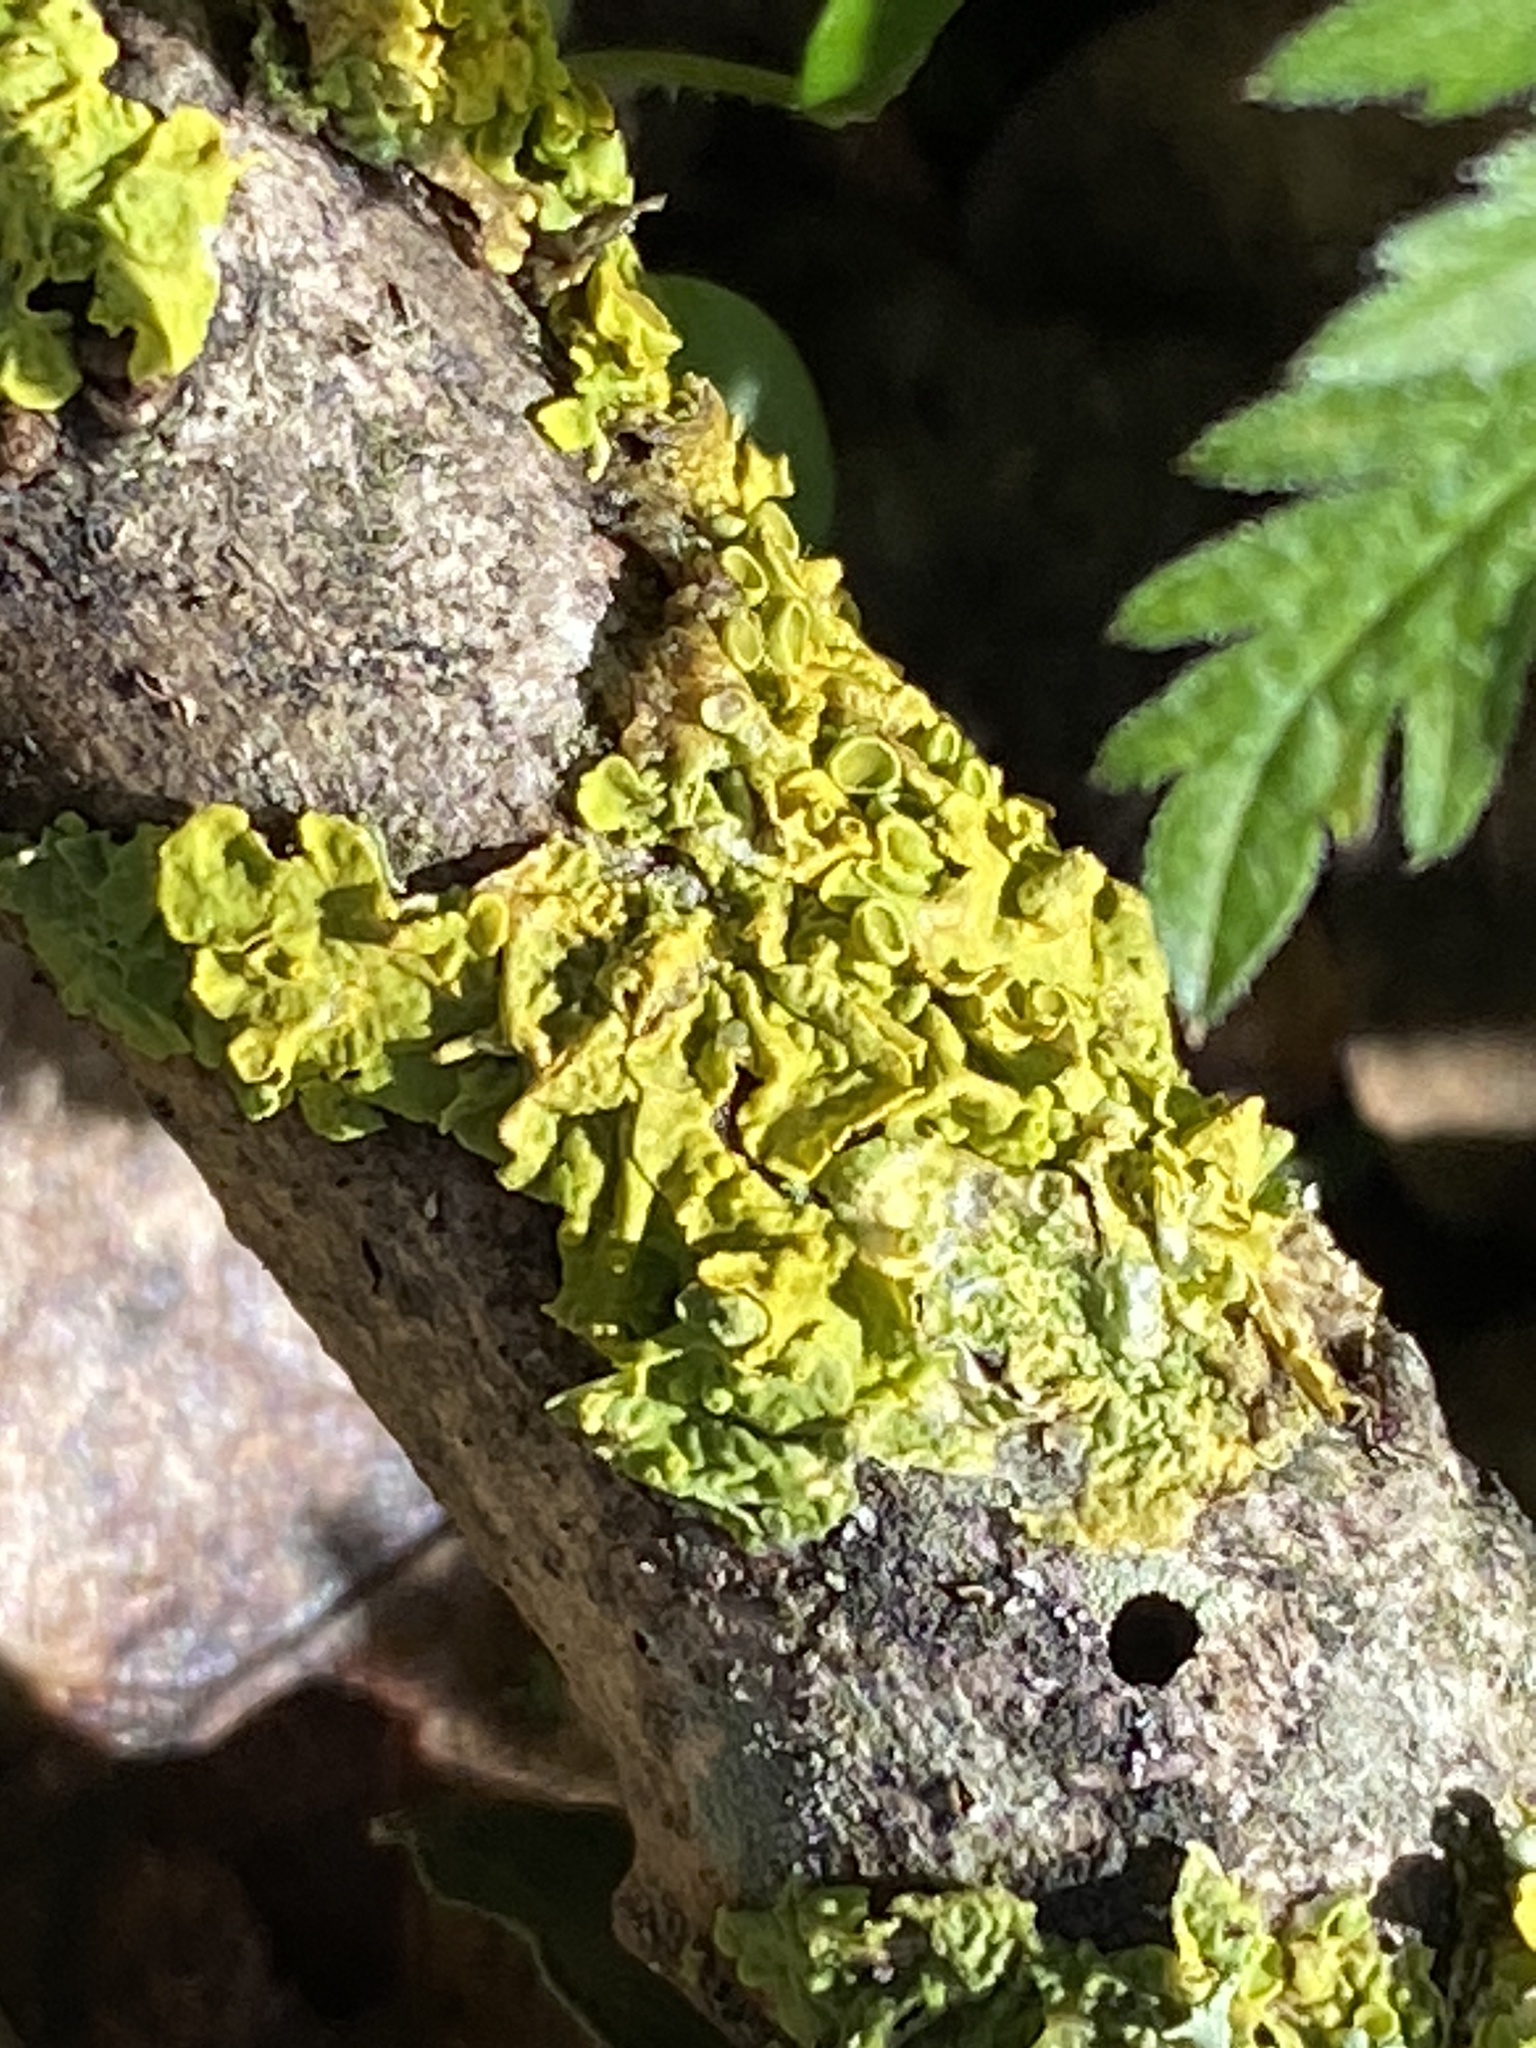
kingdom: Fungi
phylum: Ascomycota
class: Lecanoromycetes
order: Teloschistales
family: Teloschistaceae
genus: Xanthoria
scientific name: Xanthoria parietina
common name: Common orange lichen
